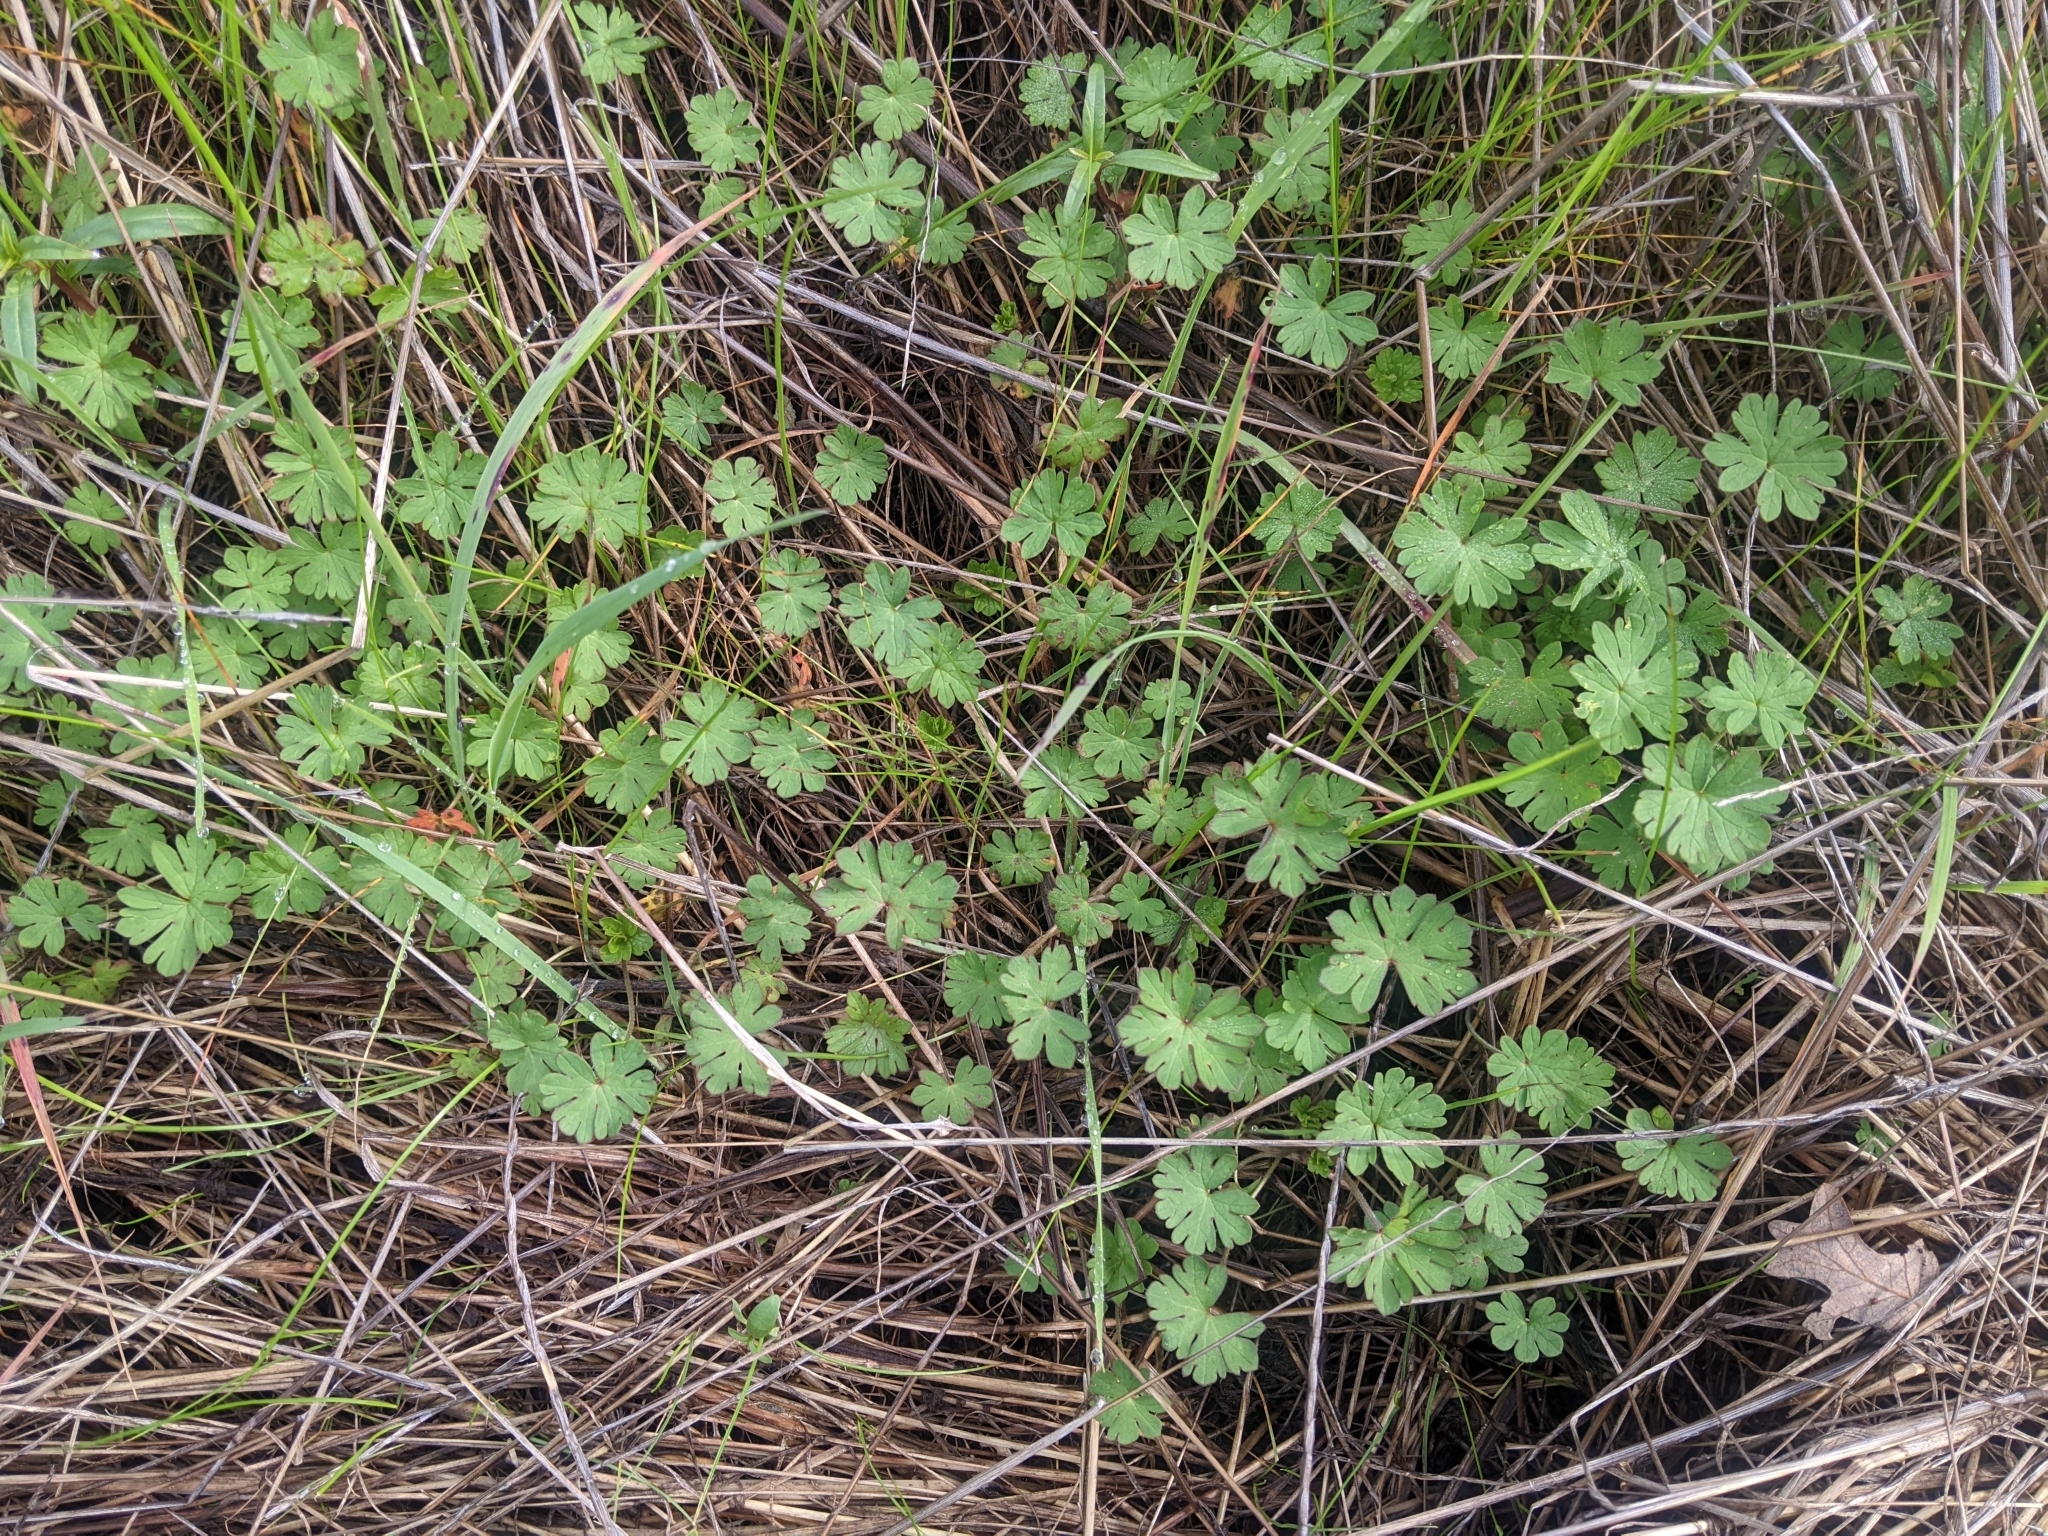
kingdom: Plantae
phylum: Tracheophyta
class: Magnoliopsida
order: Geraniales
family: Geraniaceae
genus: Geranium
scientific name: Geranium
